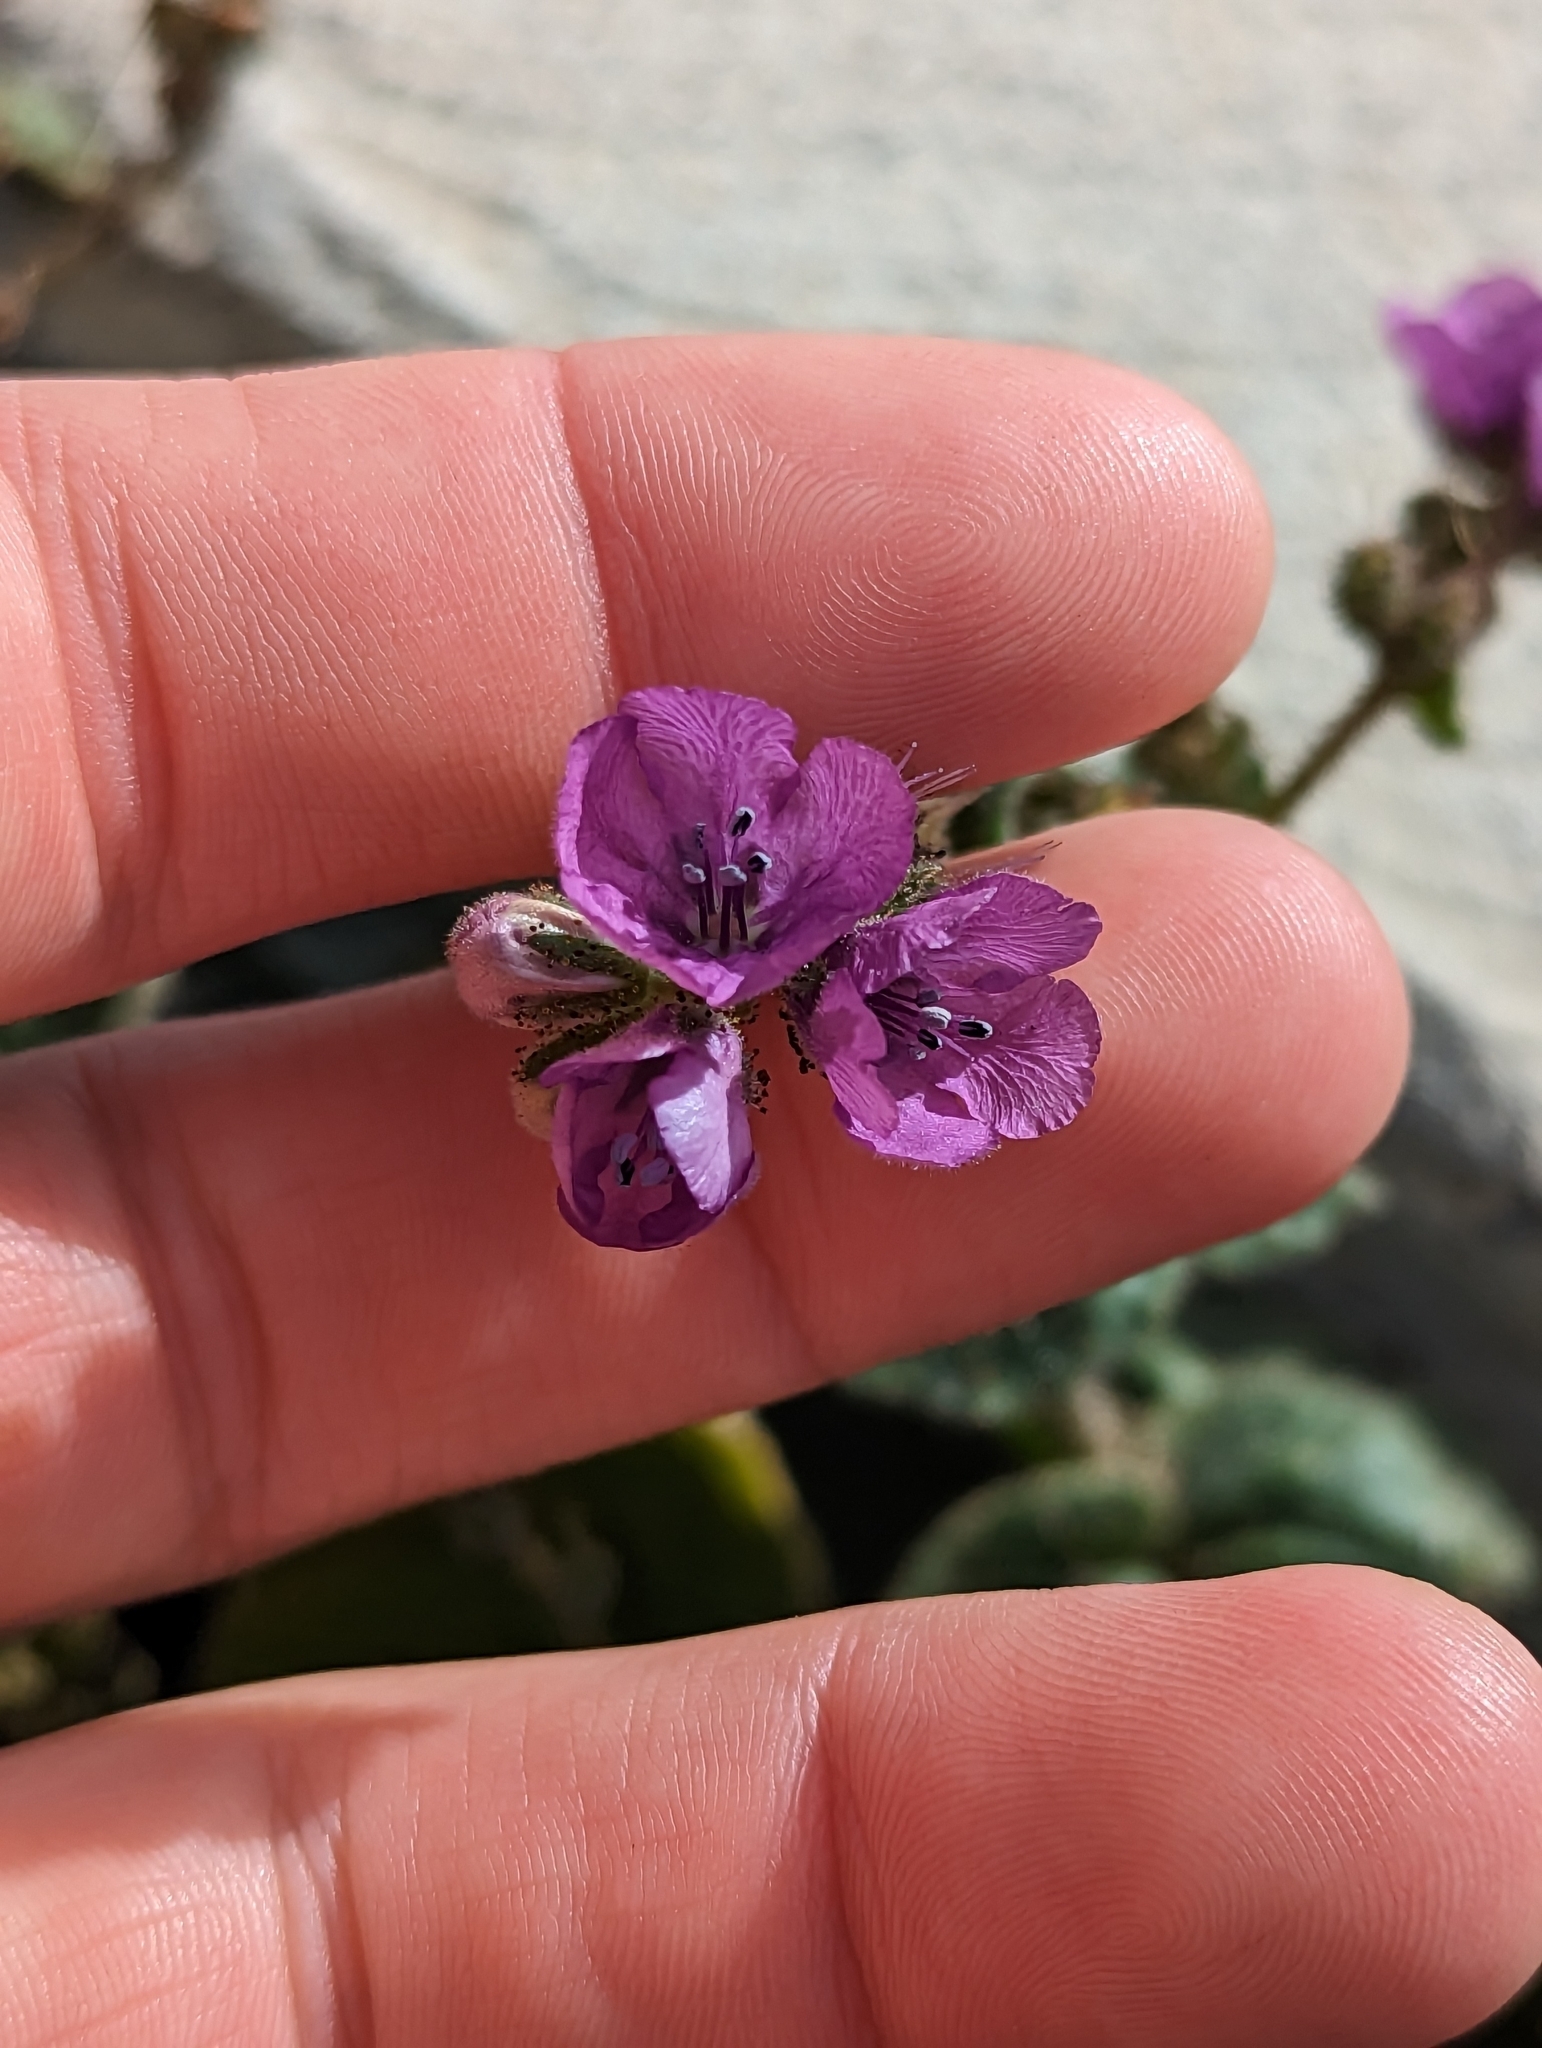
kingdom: Plantae
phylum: Tracheophyta
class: Magnoliopsida
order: Boraginales
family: Hydrophyllaceae
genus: Phacelia
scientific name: Phacelia calthifolia
